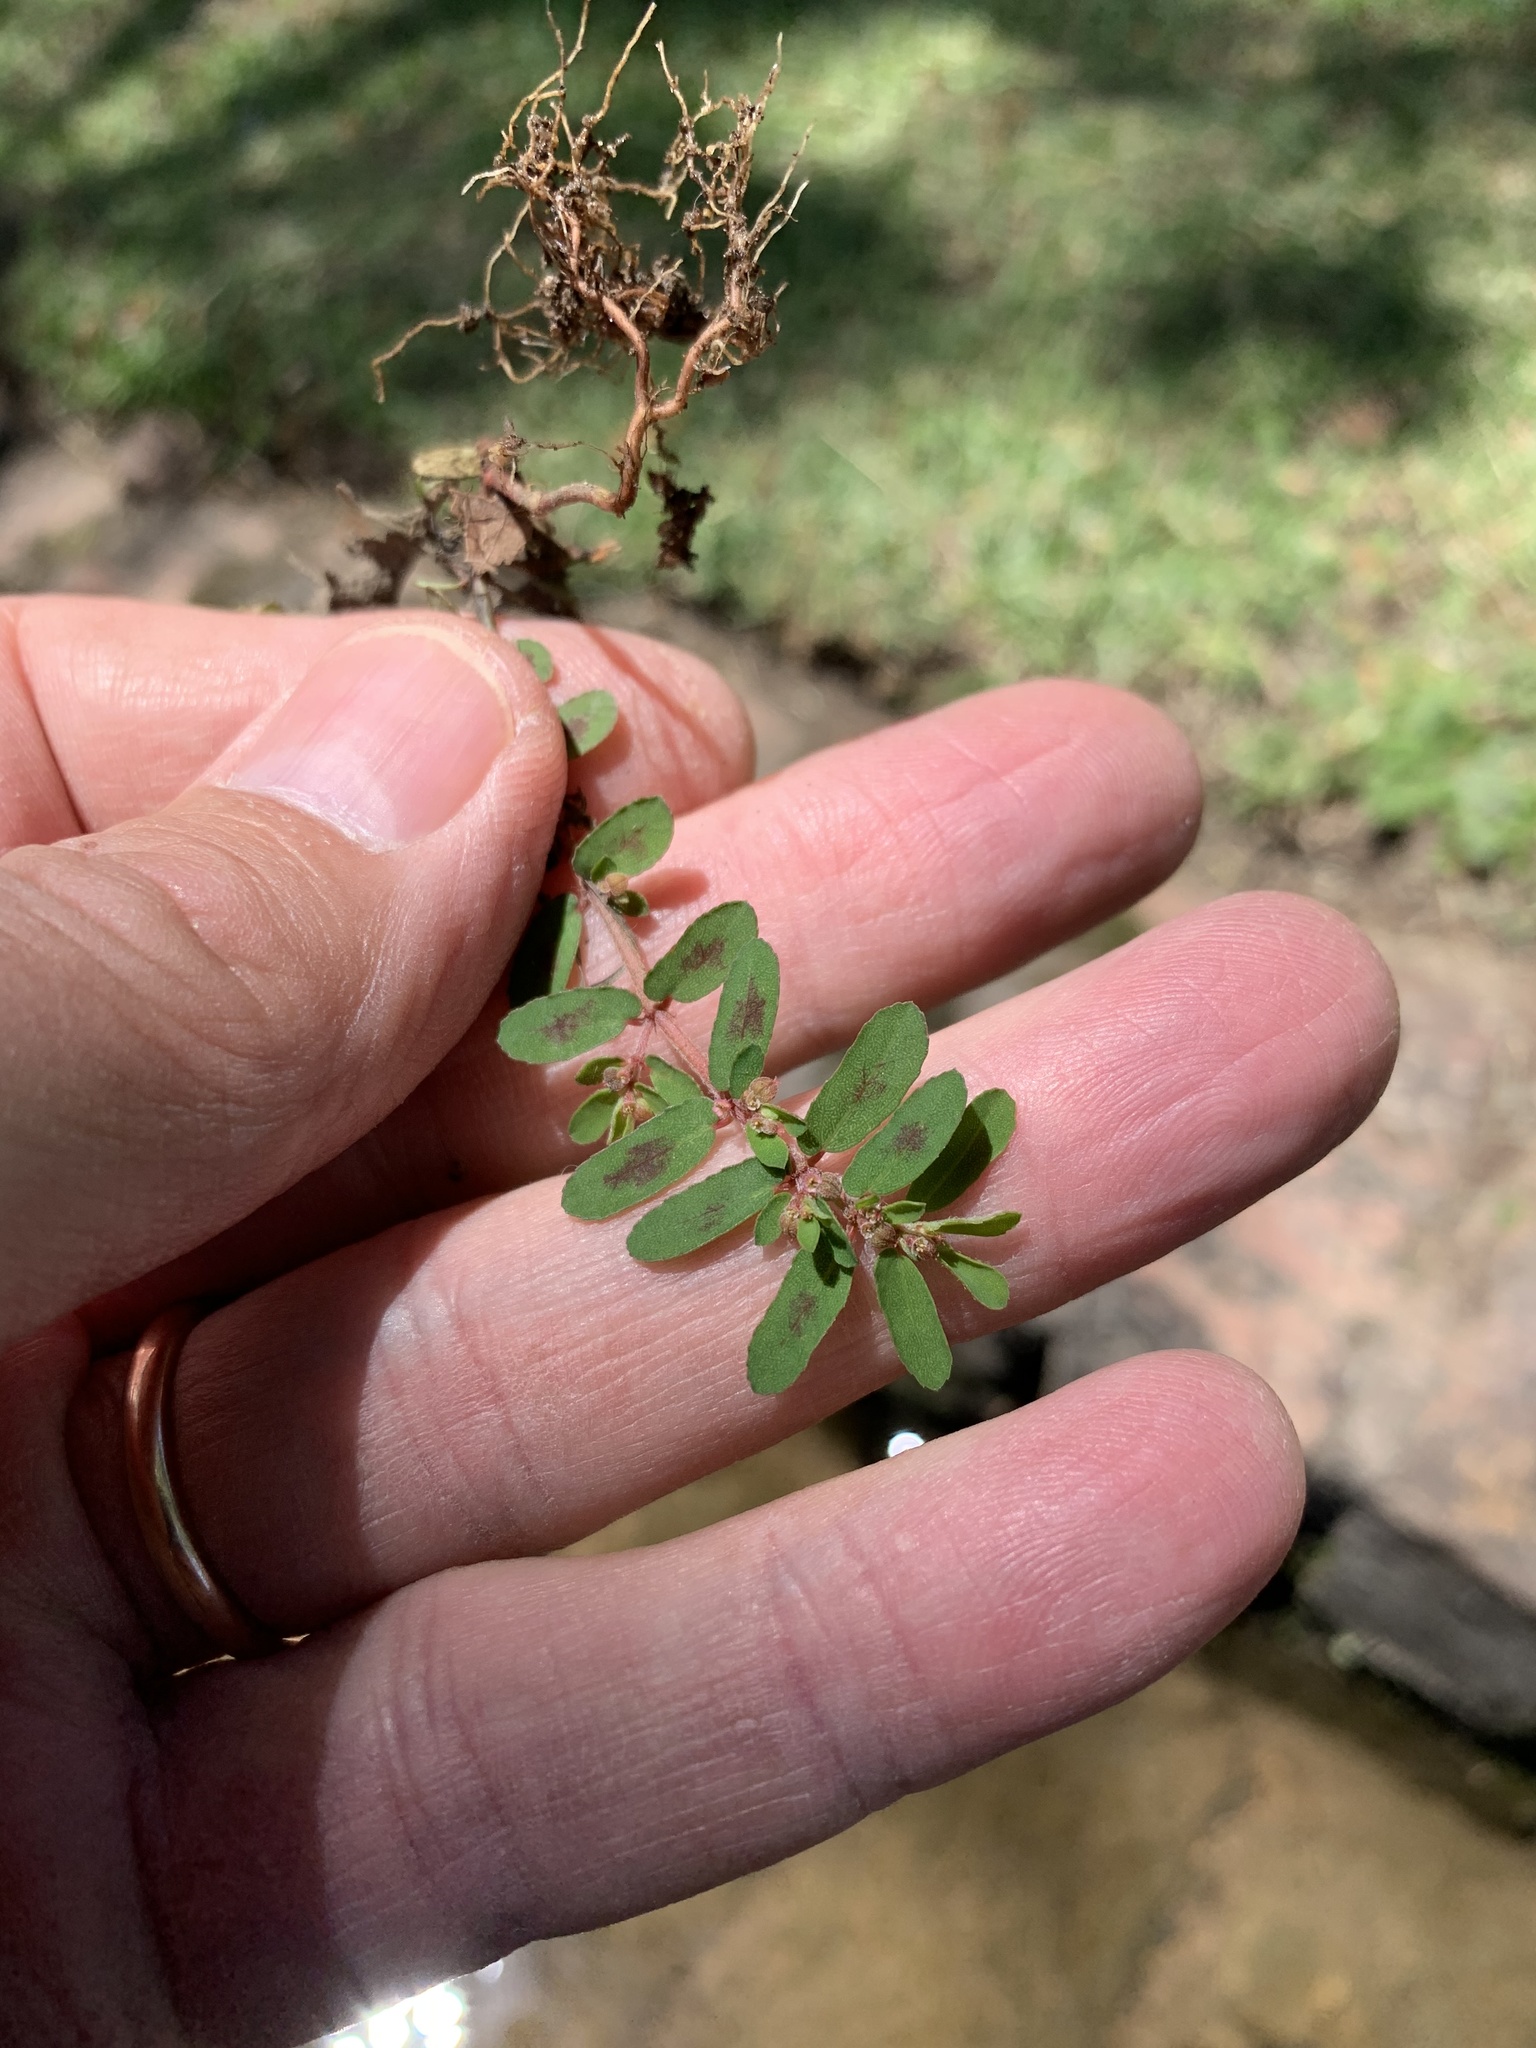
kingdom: Plantae
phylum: Tracheophyta
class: Magnoliopsida
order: Malpighiales
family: Euphorbiaceae
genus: Euphorbia
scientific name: Euphorbia maculata
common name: Spotted spurge
